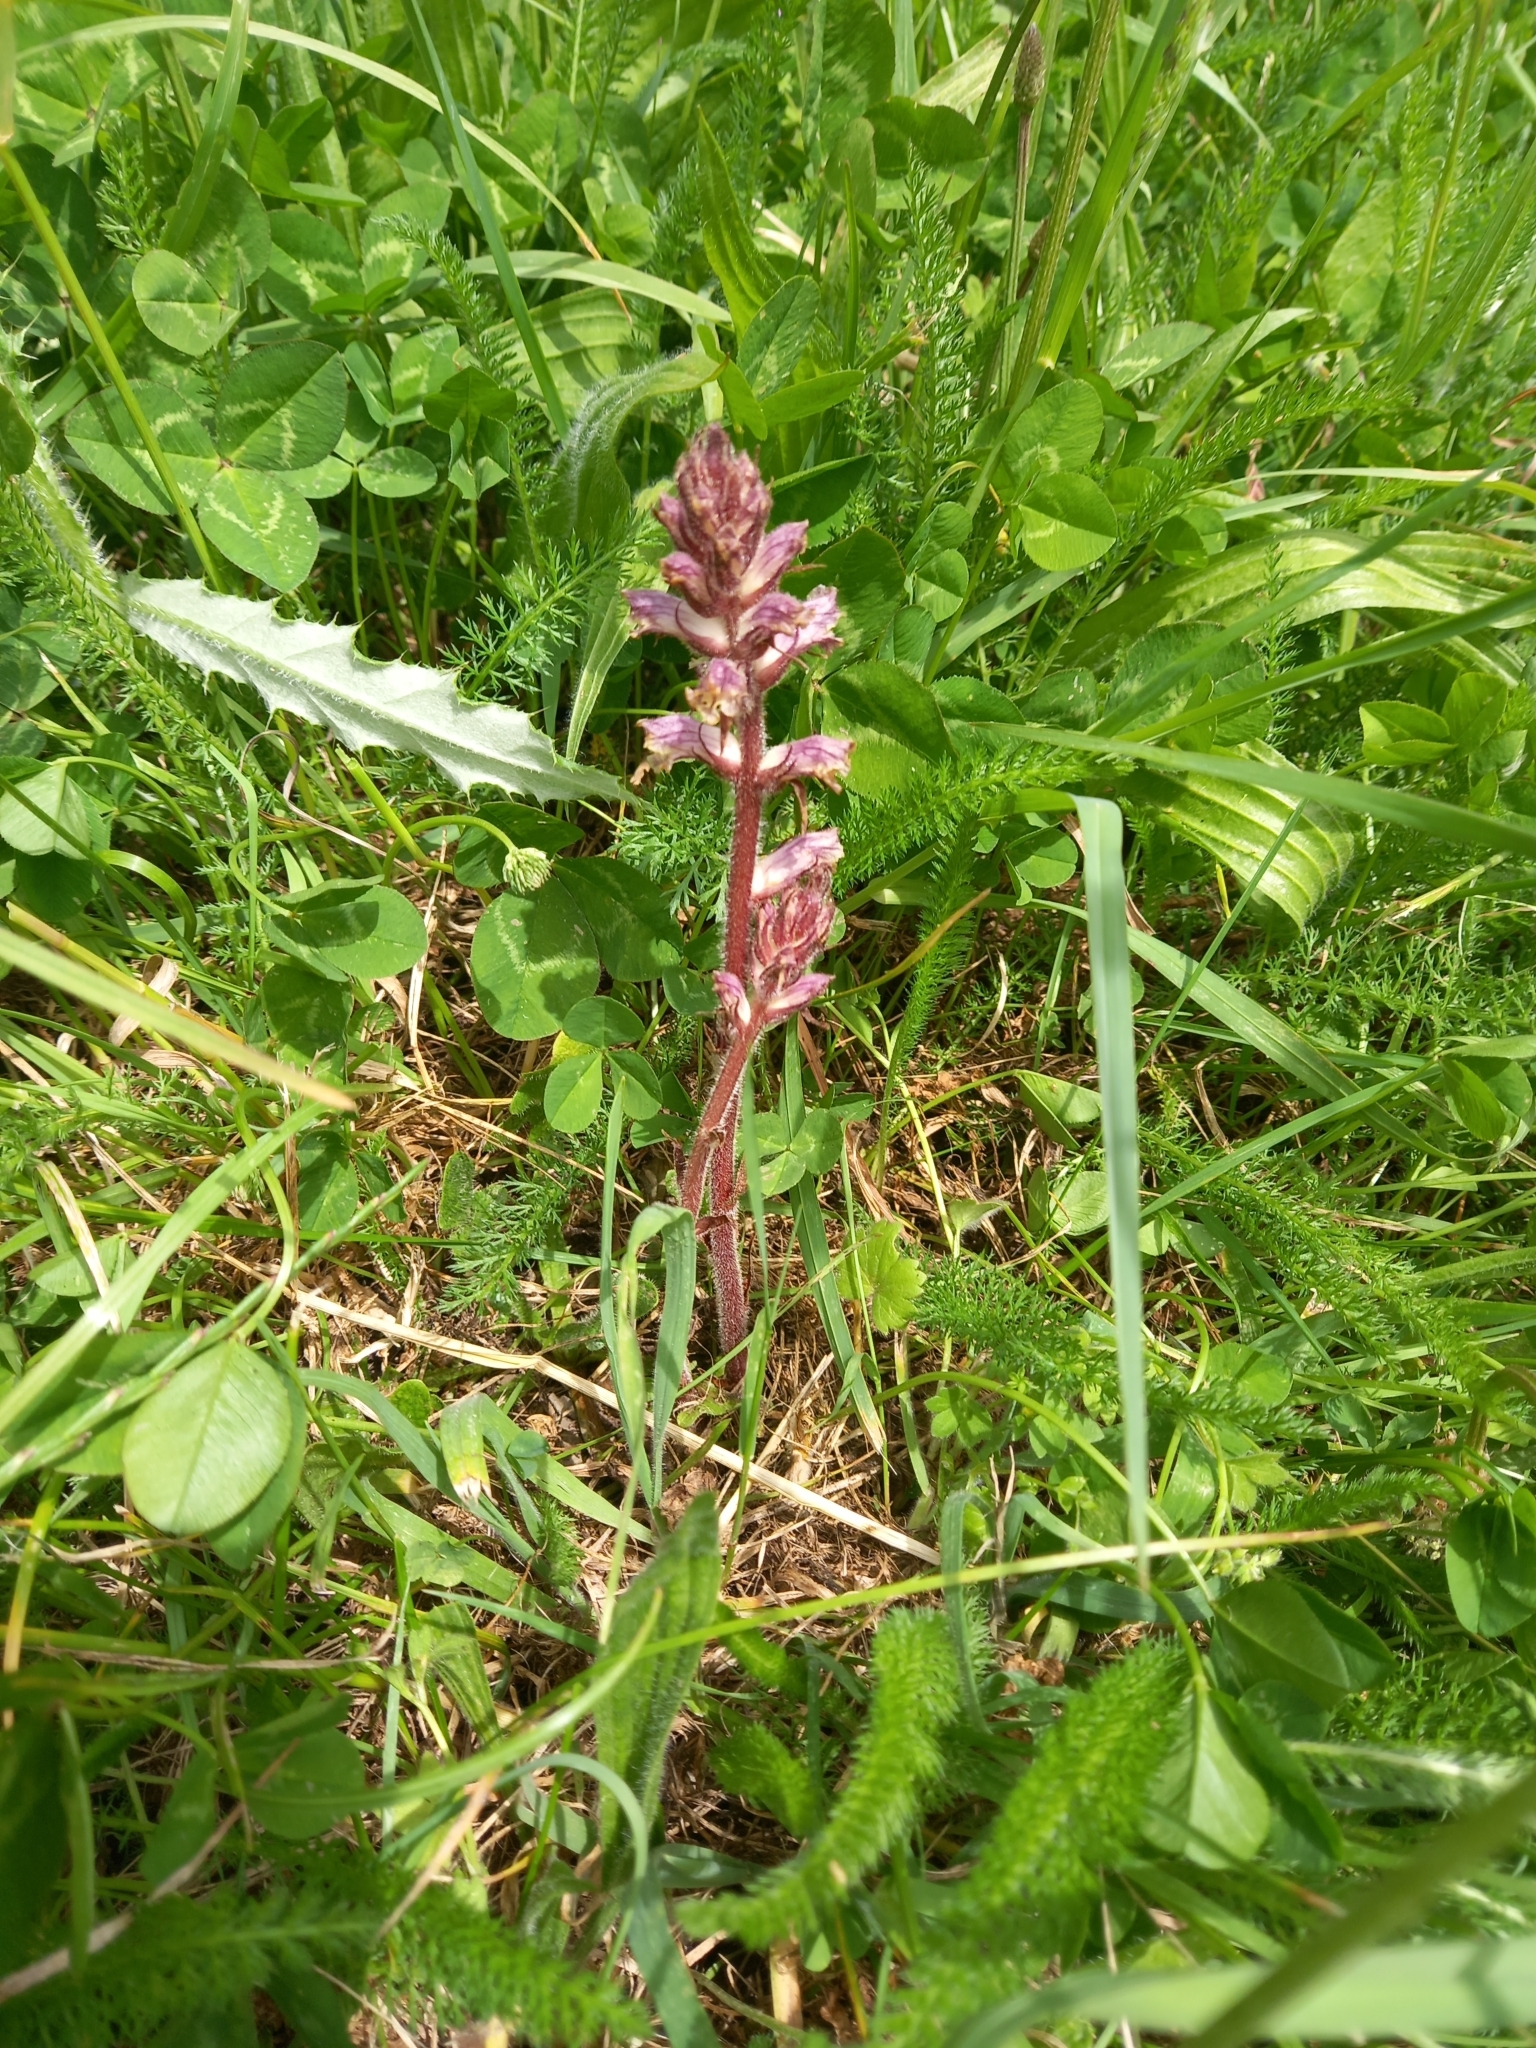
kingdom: Plantae
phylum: Tracheophyta
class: Magnoliopsida
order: Lamiales
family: Orobanchaceae
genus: Orobanche
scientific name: Orobanche minor
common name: Common broomrape
